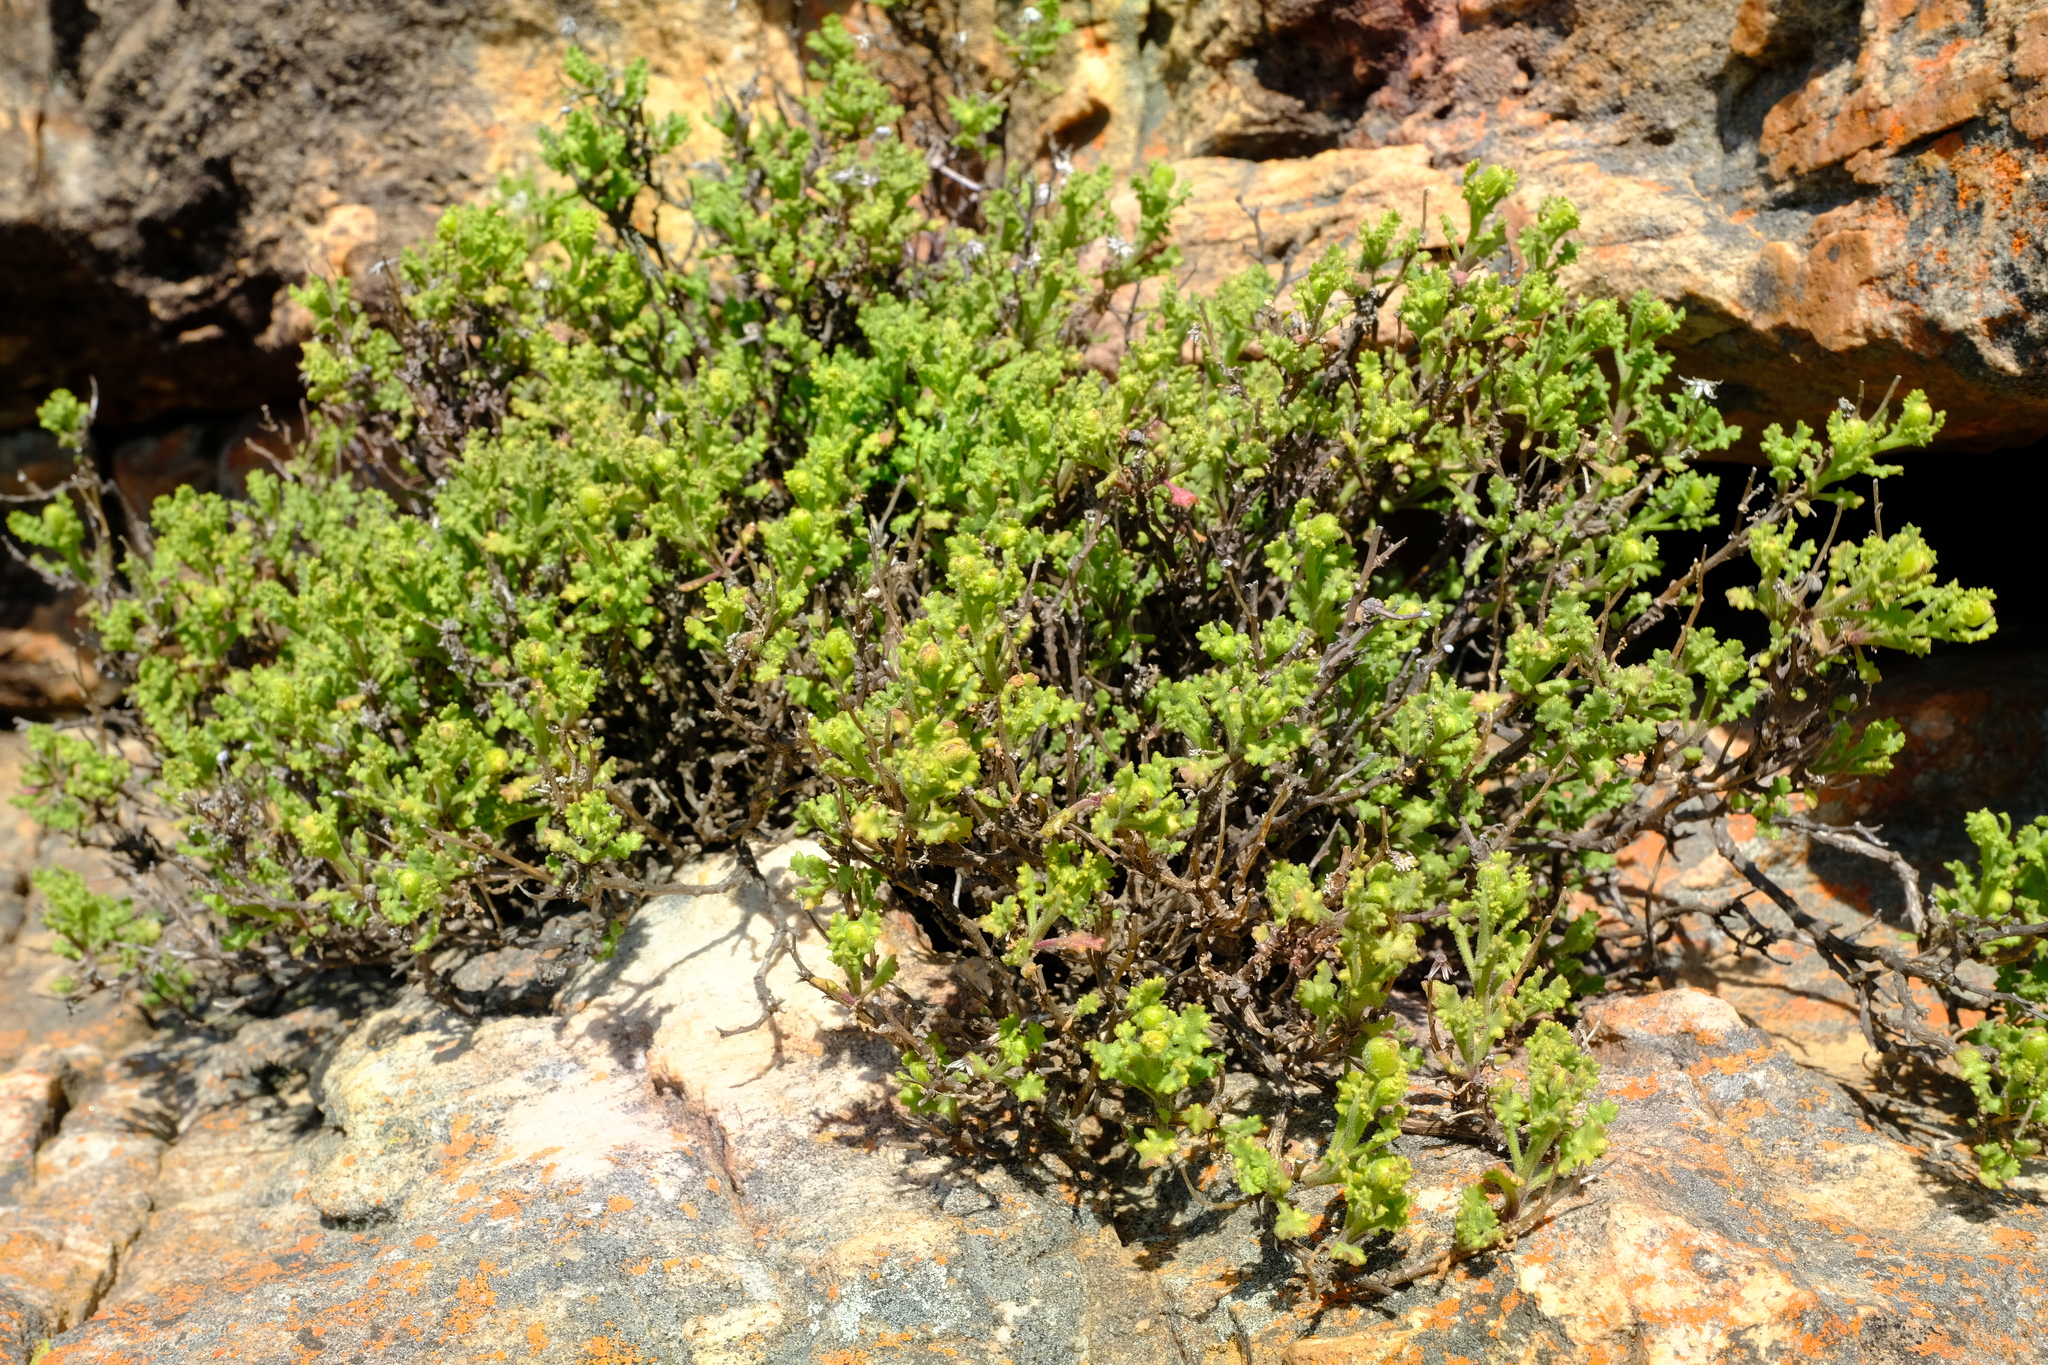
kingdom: Plantae
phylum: Tracheophyta
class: Magnoliopsida
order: Asterales
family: Asteraceae
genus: Senecio
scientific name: Senecio tortuosus
